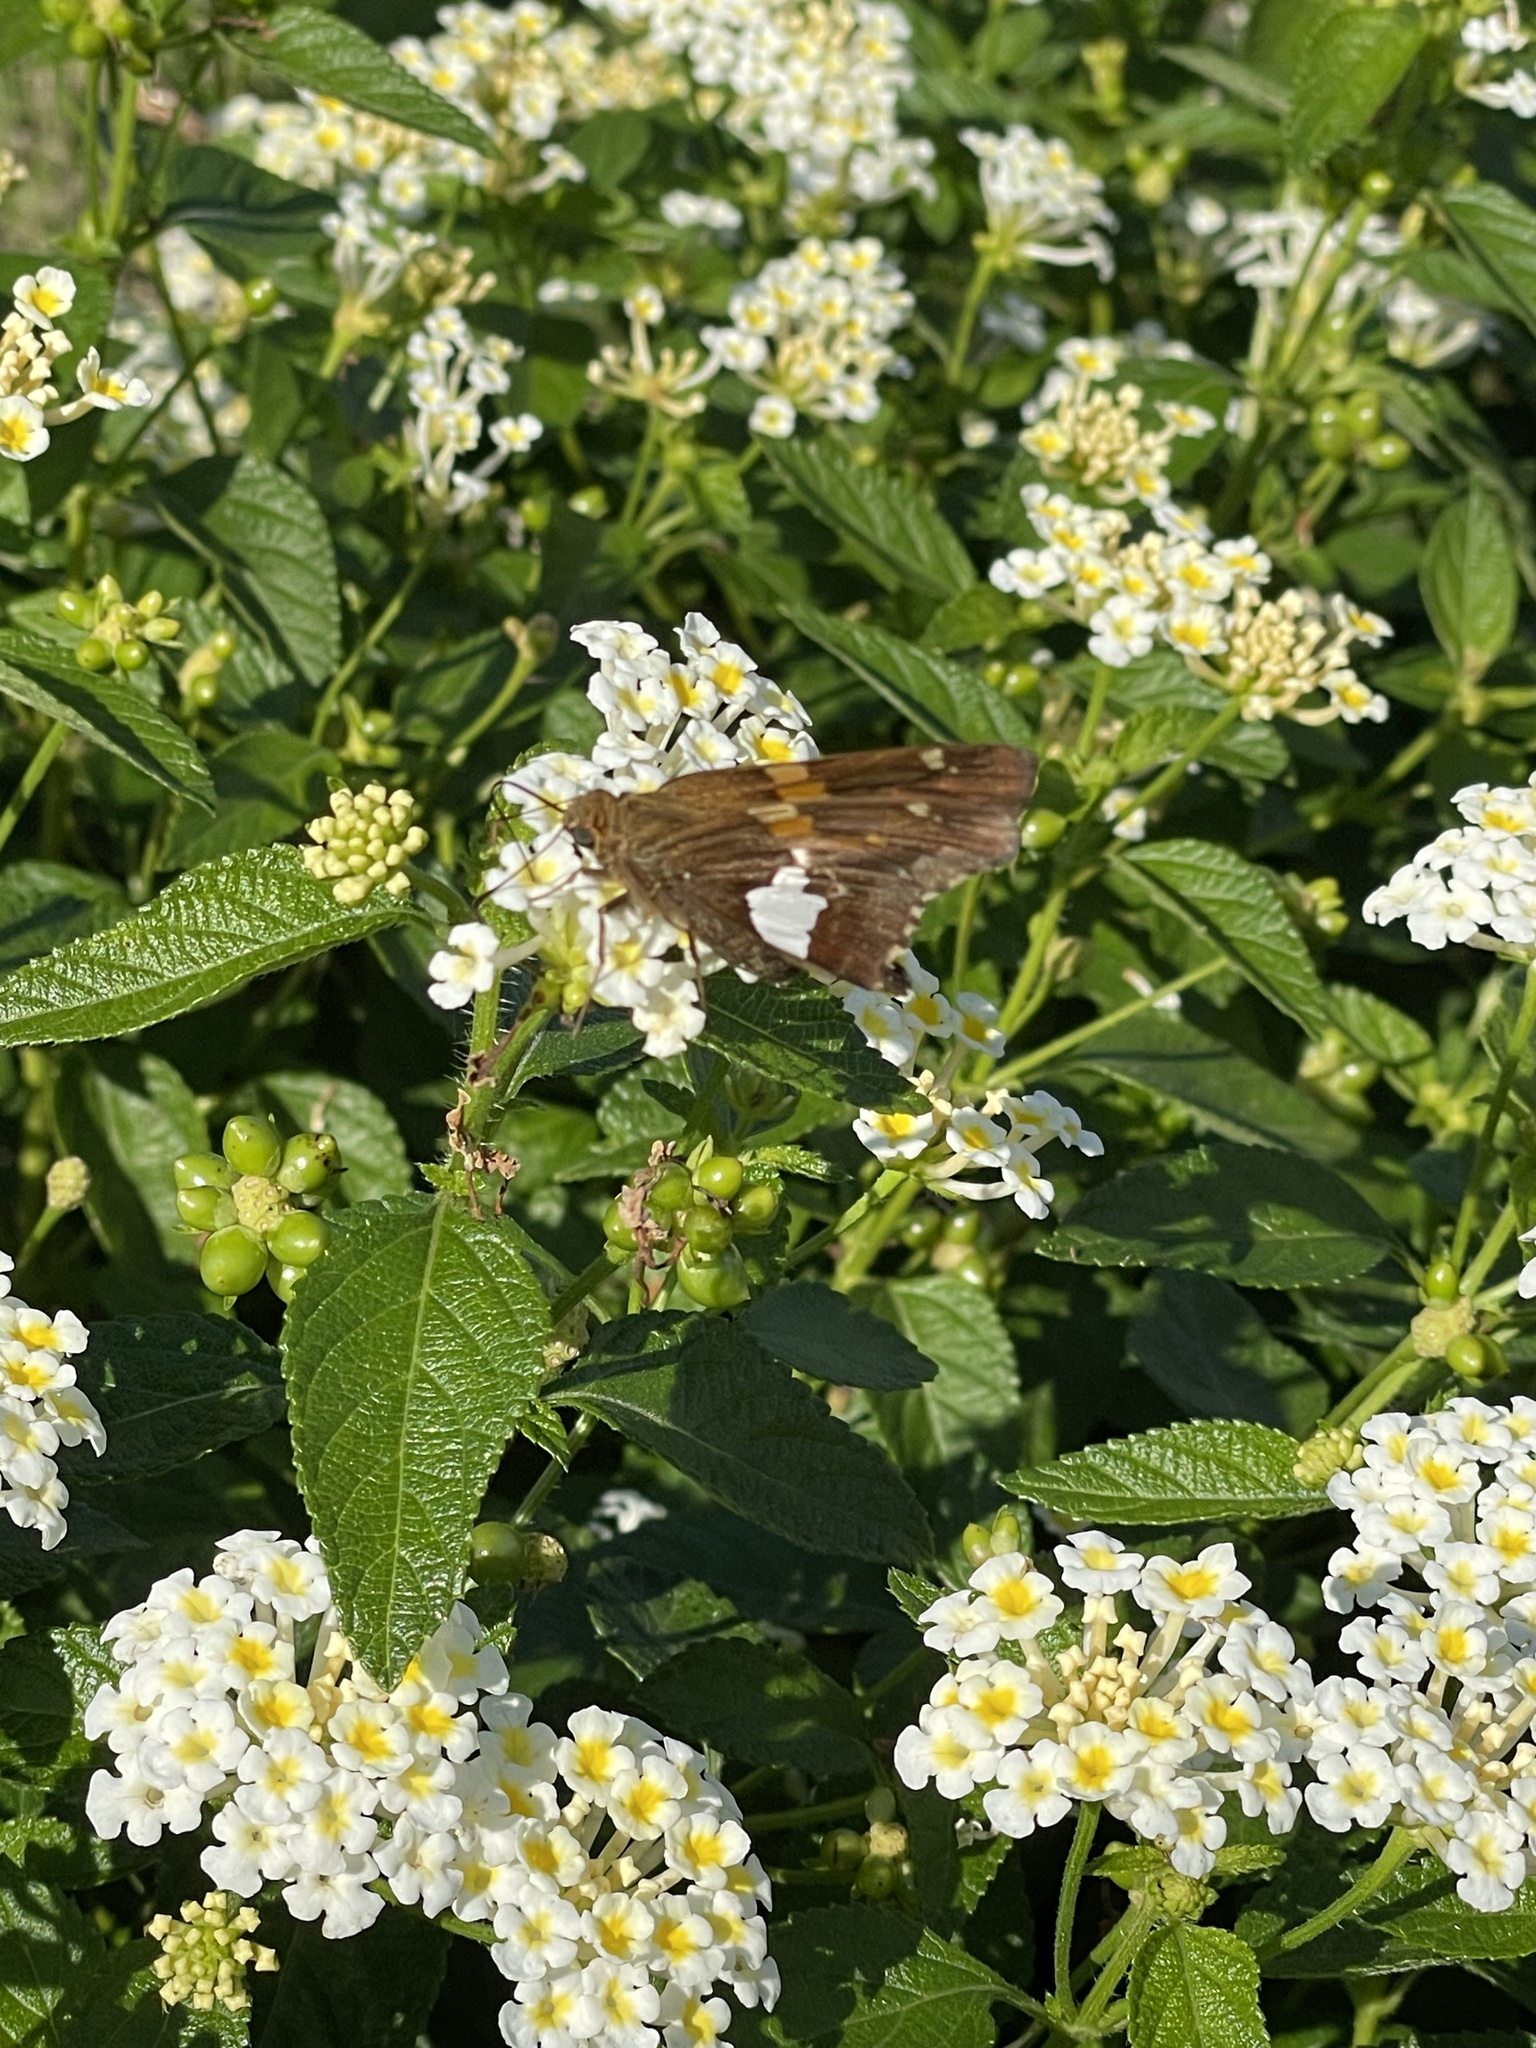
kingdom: Animalia
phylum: Arthropoda
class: Insecta
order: Lepidoptera
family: Hesperiidae
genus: Epargyreus
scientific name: Epargyreus clarus
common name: Silver-spotted skipper
